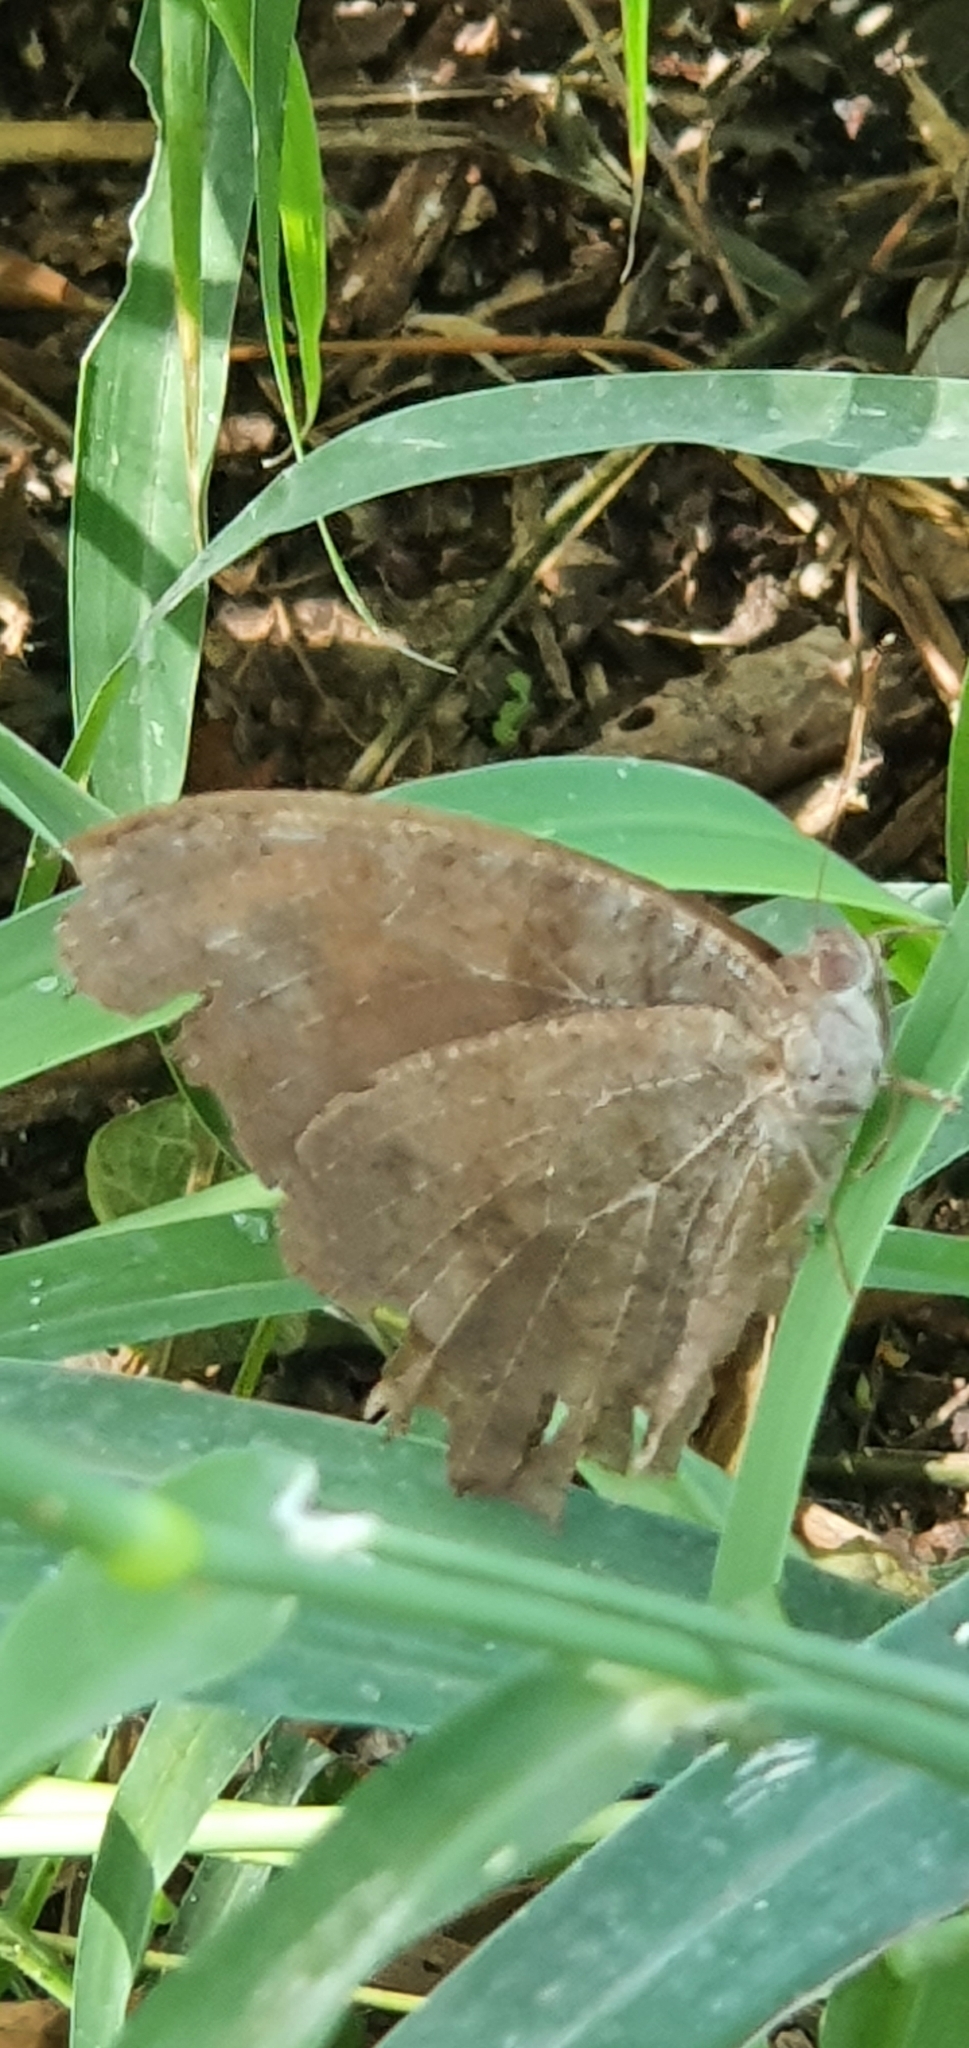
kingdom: Animalia
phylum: Arthropoda
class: Insecta
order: Lepidoptera
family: Nymphalidae
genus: Melanitis
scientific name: Melanitis leda
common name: Twilight brown
